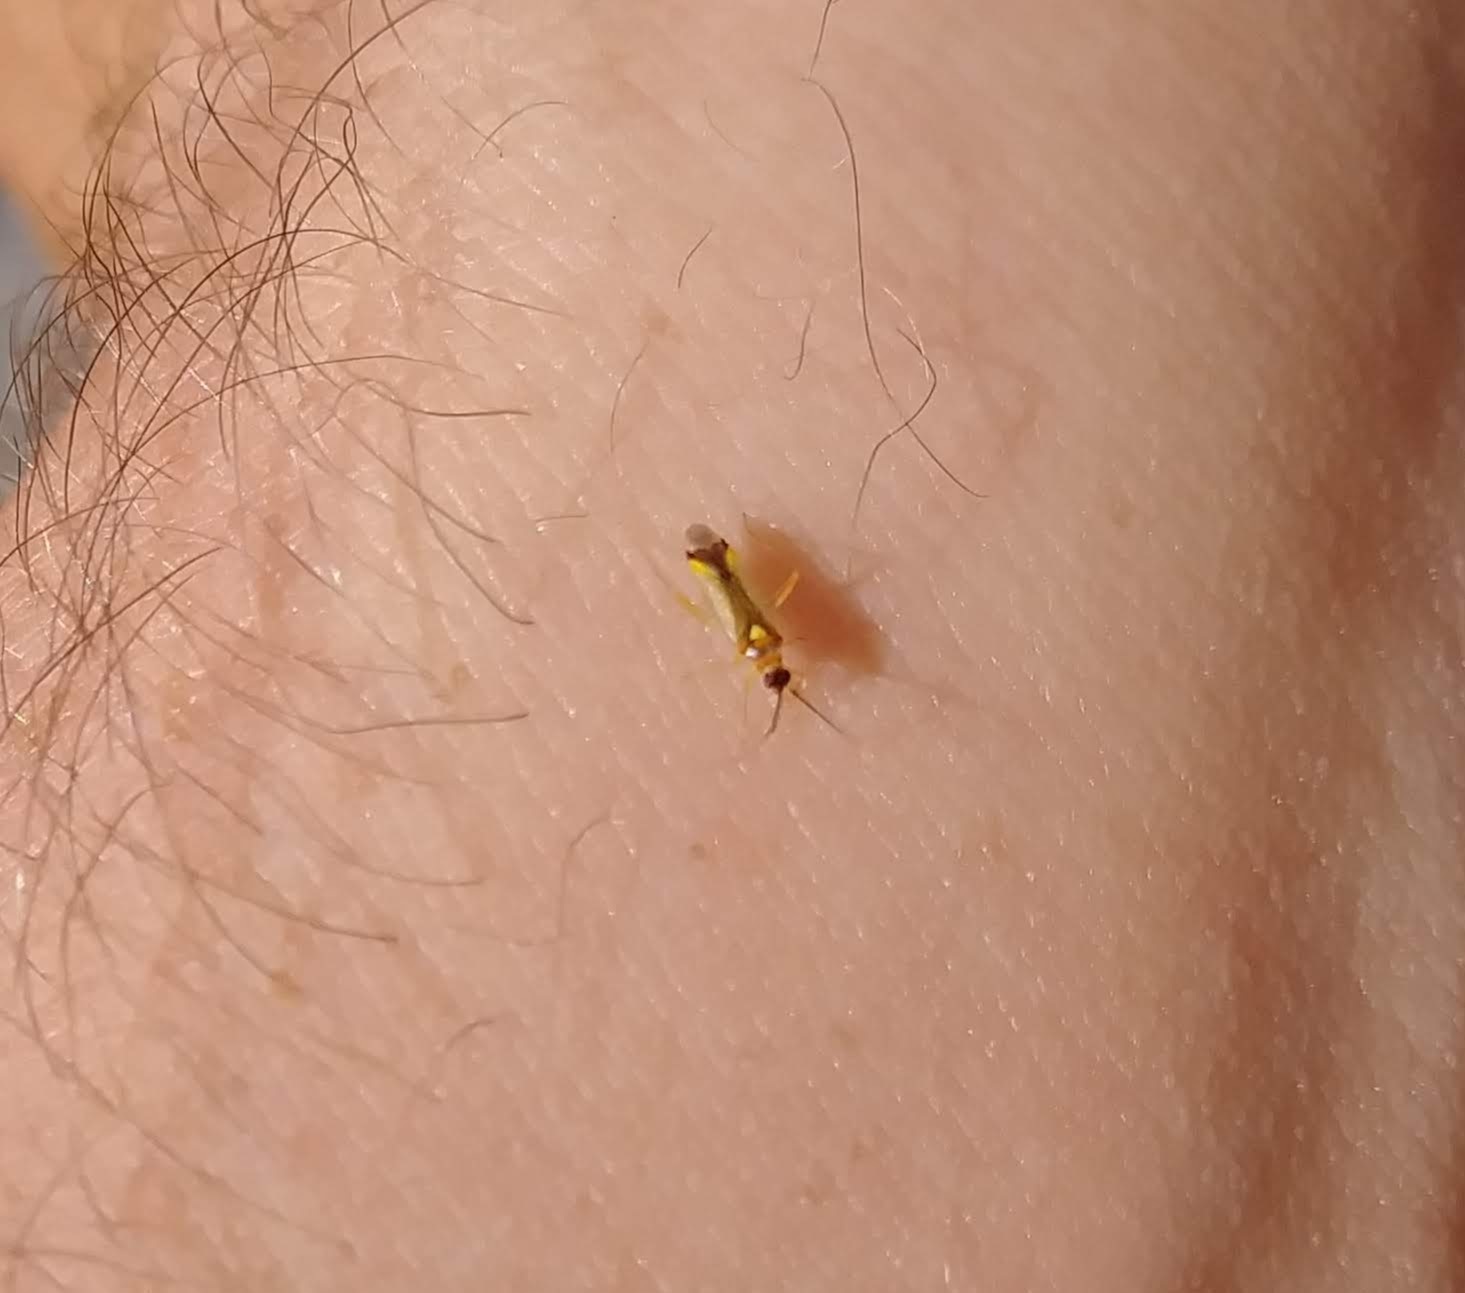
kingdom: Animalia
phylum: Arthropoda
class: Insecta
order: Hemiptera
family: Miridae
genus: Campyloneura
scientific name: Campyloneura virgula
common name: Predatory bug
